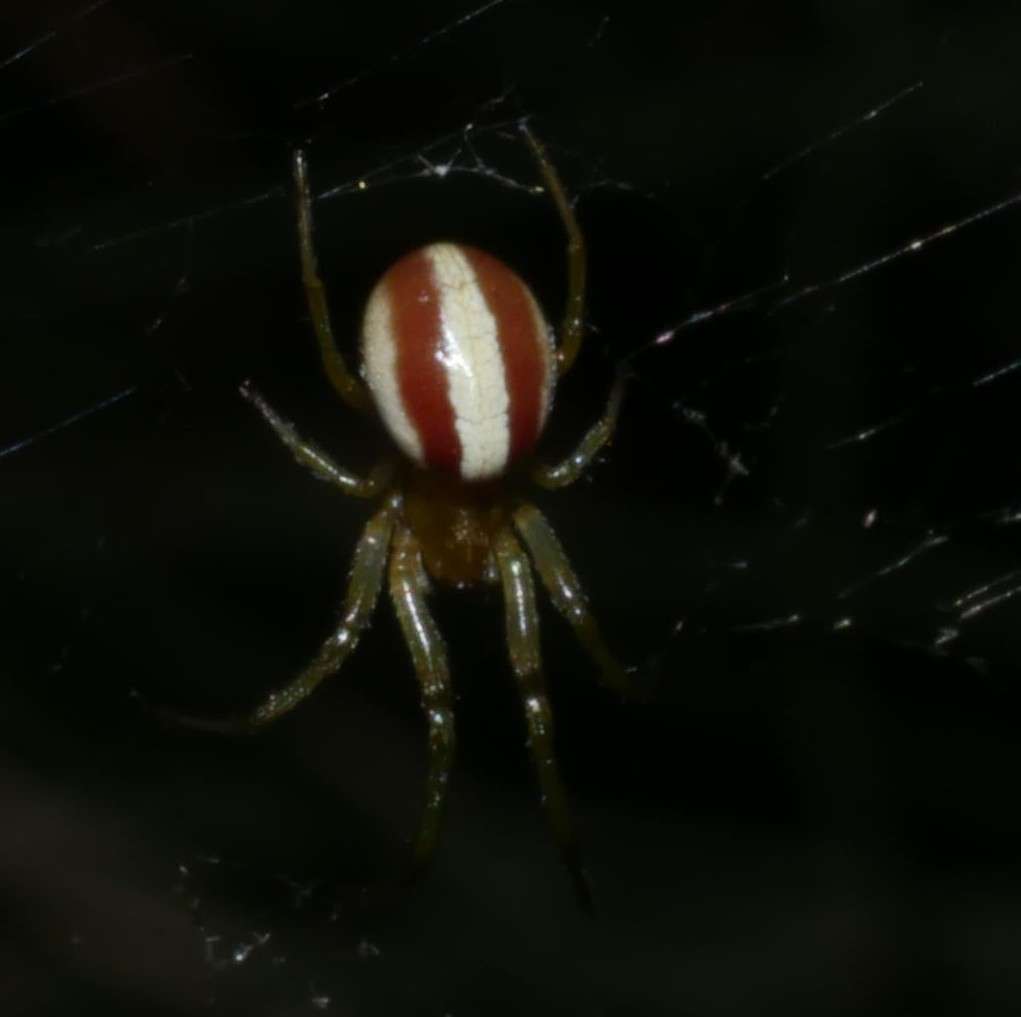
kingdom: Animalia
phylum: Arthropoda
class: Arachnida
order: Araneae
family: Araneidae
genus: Deliochus
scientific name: Deliochus idoneus
